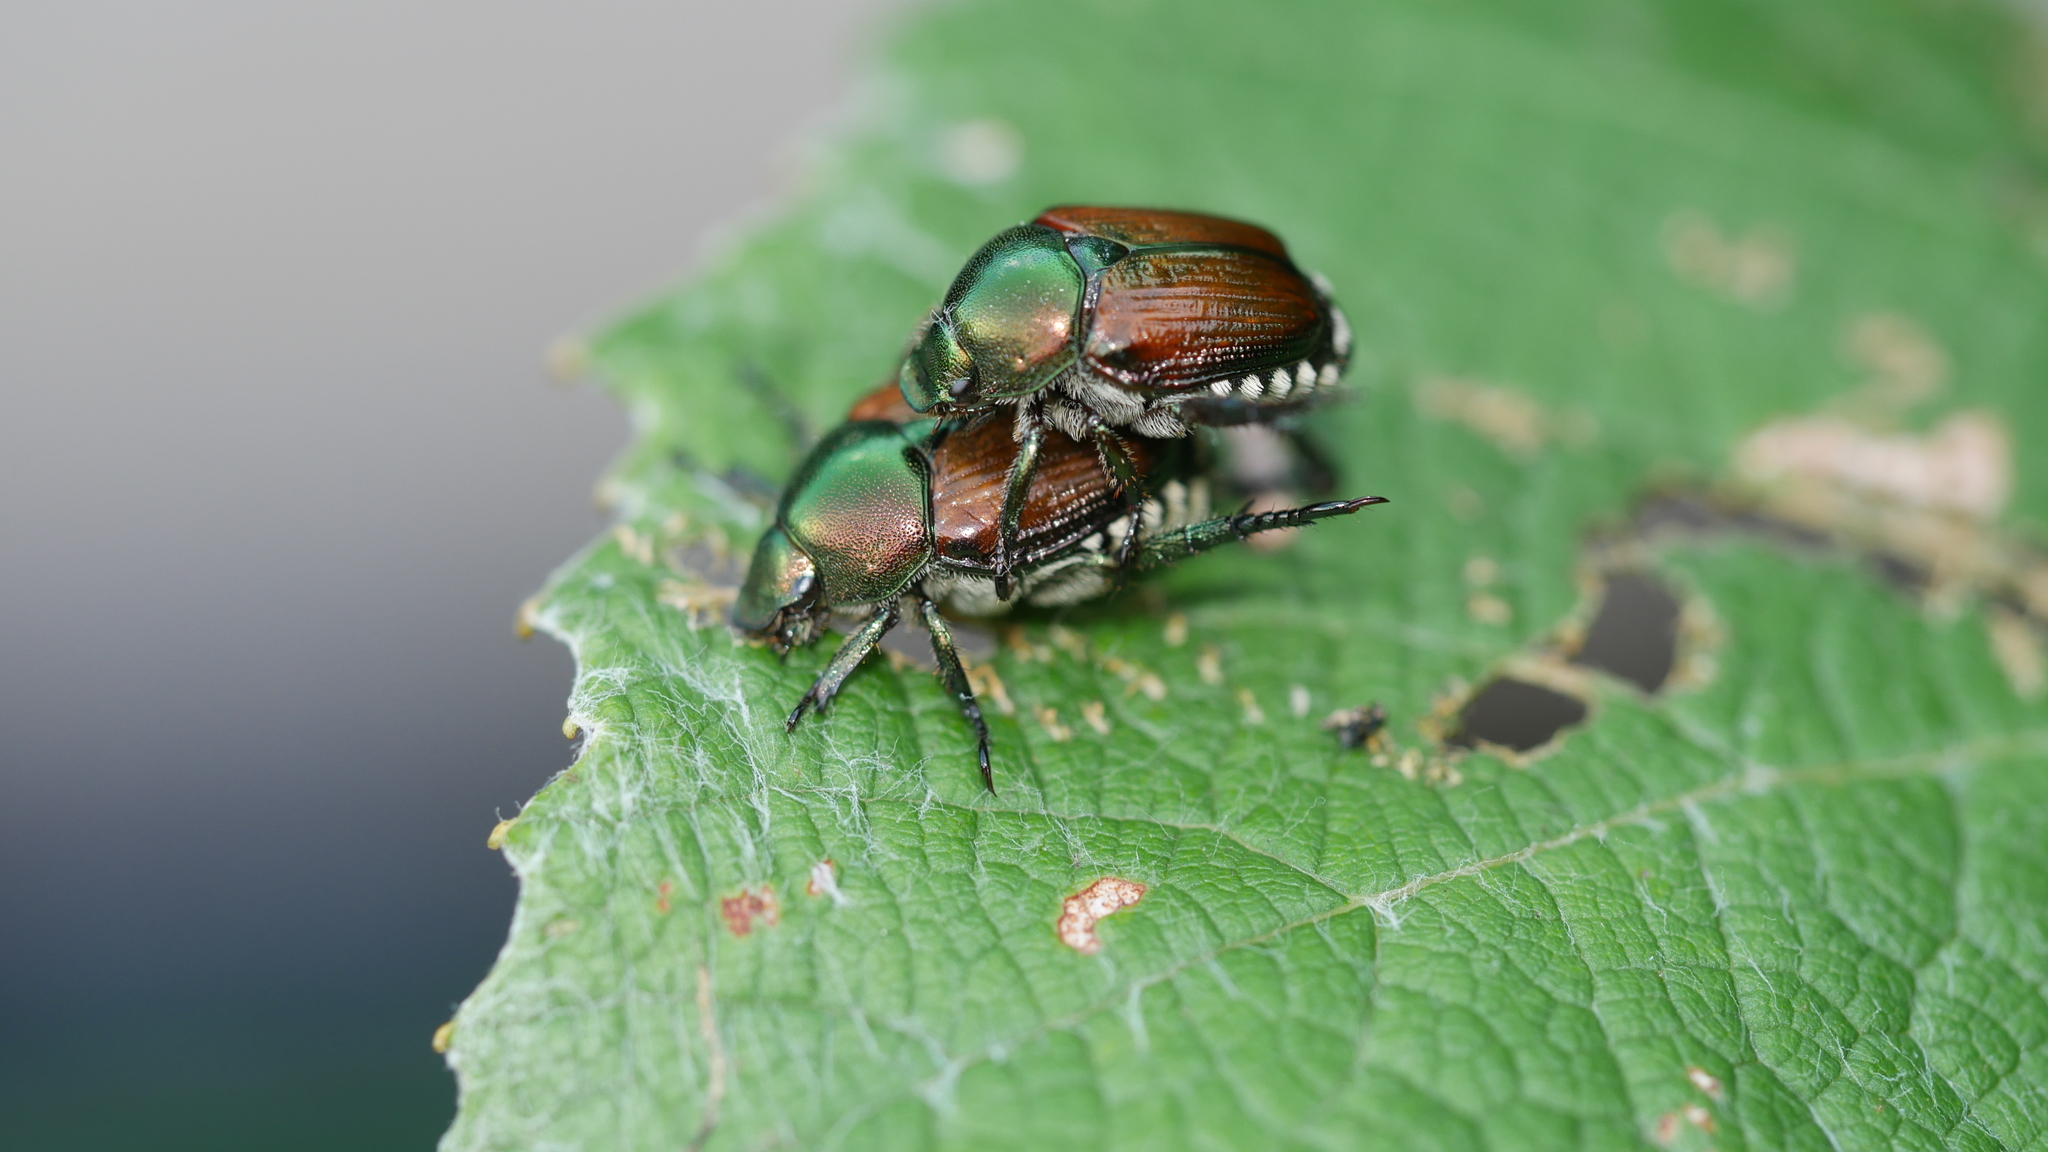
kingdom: Animalia
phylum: Arthropoda
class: Insecta
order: Coleoptera
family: Scarabaeidae
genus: Popillia
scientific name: Popillia japonica
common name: Japanese beetle
